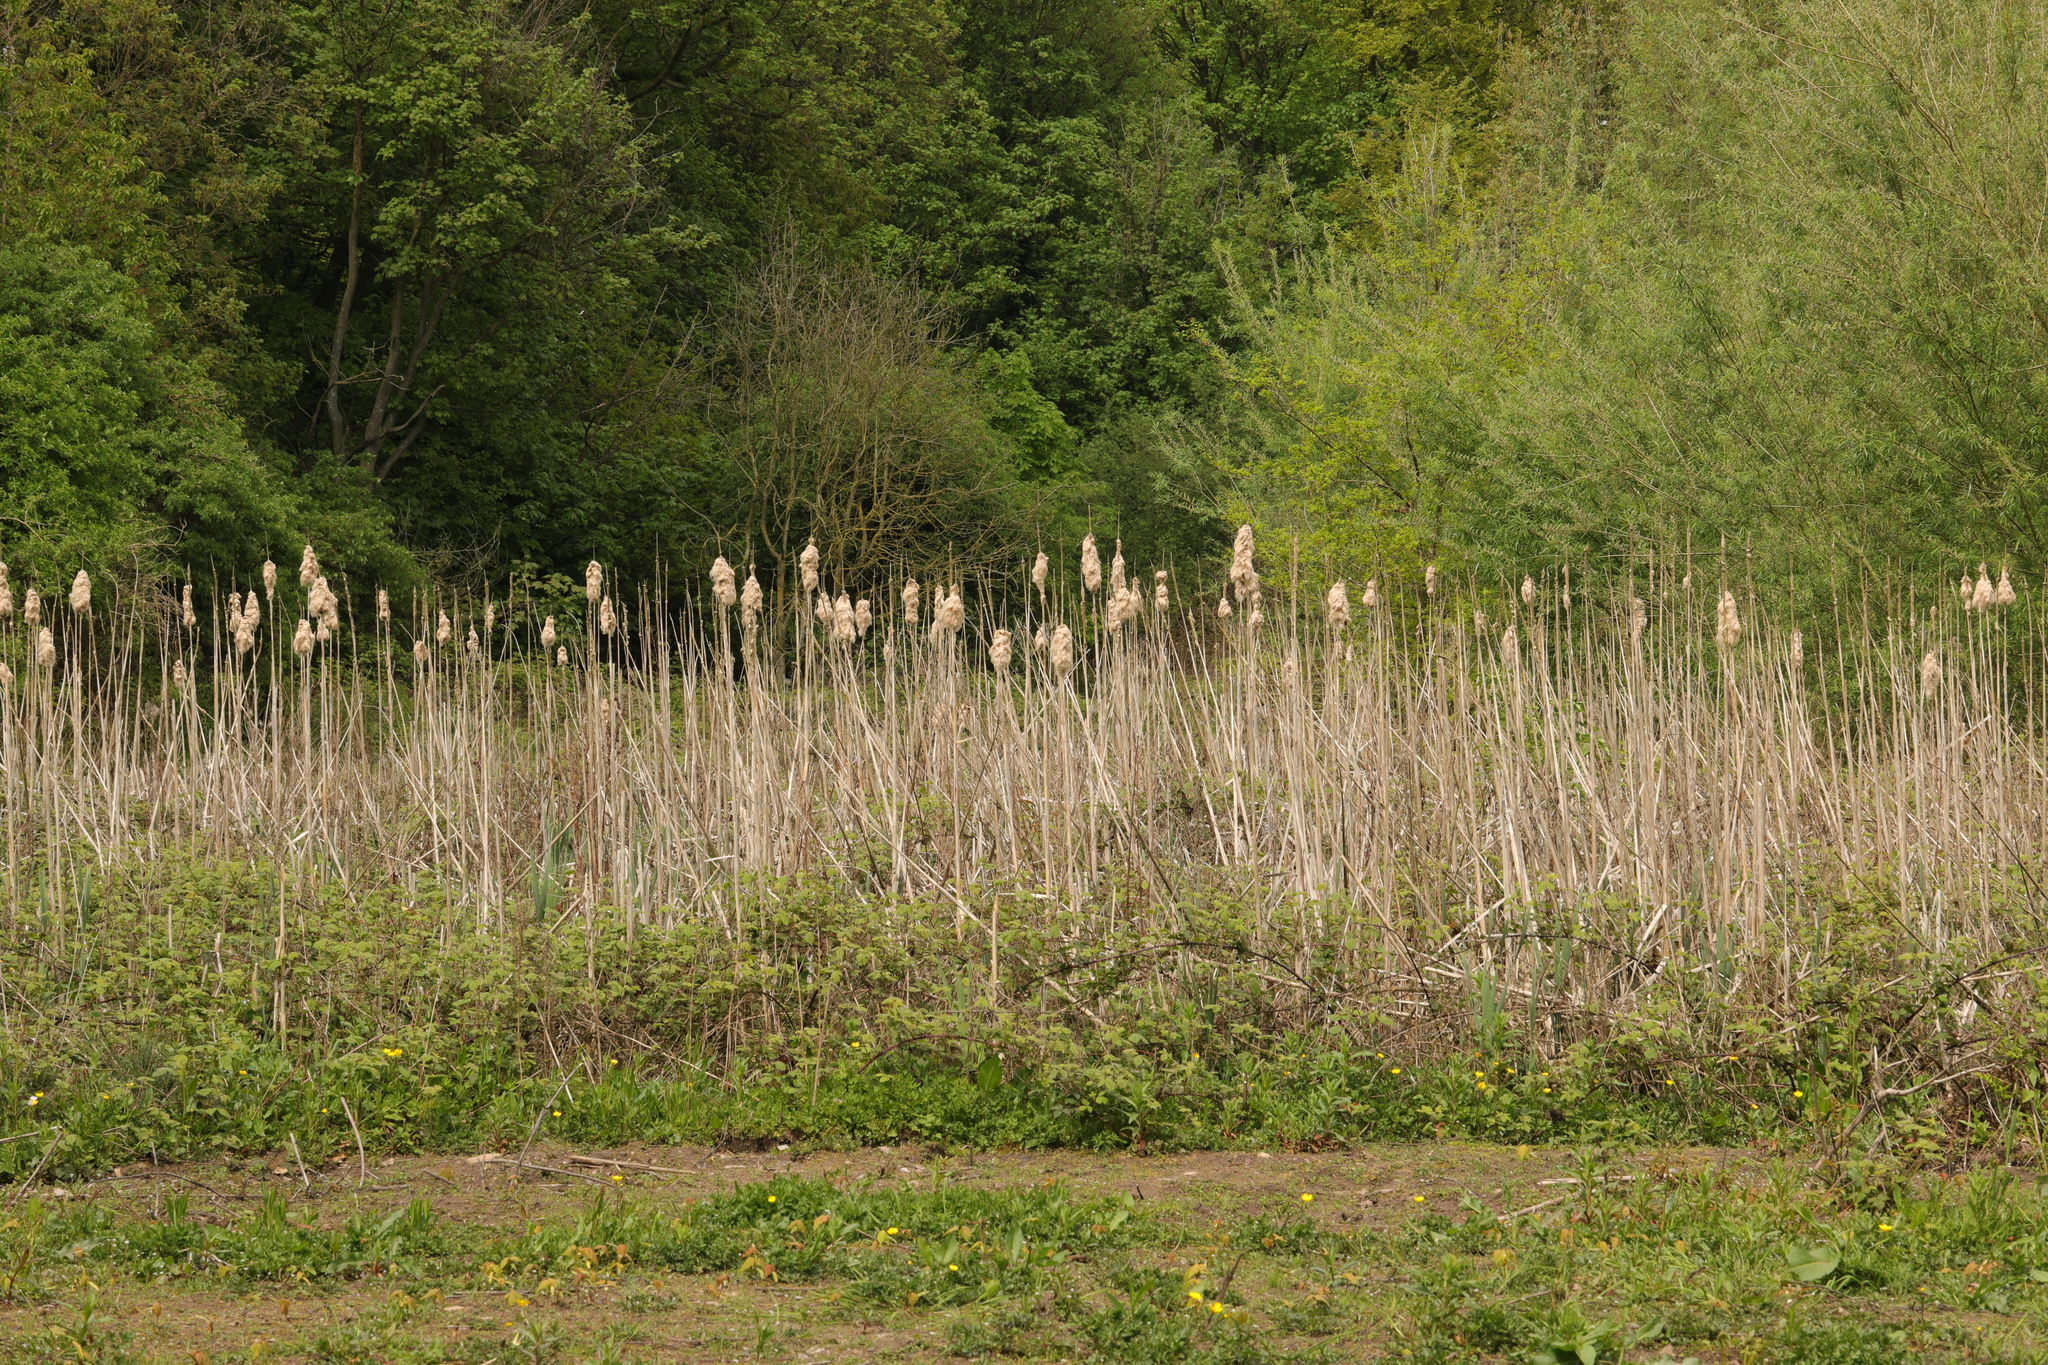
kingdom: Plantae
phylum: Tracheophyta
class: Liliopsida
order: Poales
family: Typhaceae
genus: Typha
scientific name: Typha latifolia
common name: Broadleaf cattail
